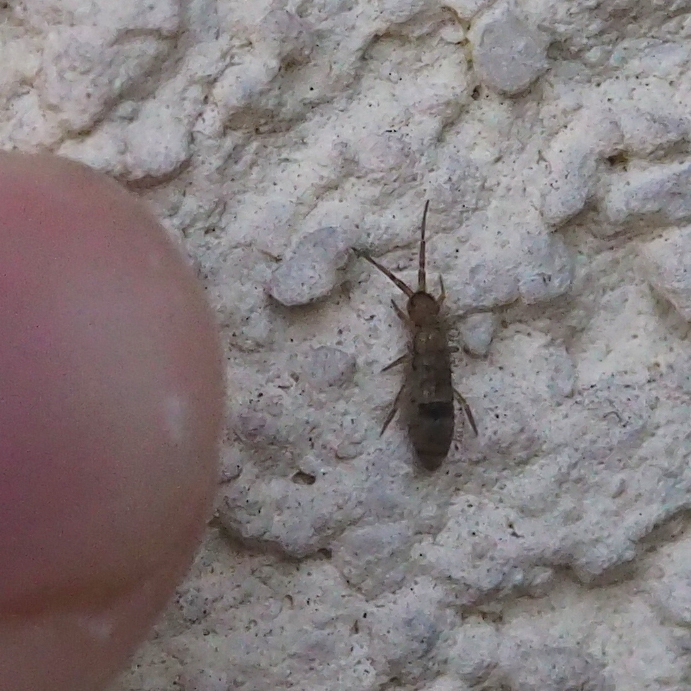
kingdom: Animalia
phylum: Arthropoda
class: Collembola
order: Entomobryomorpha
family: Orchesellidae
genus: Orchesella
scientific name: Orchesella cincta
